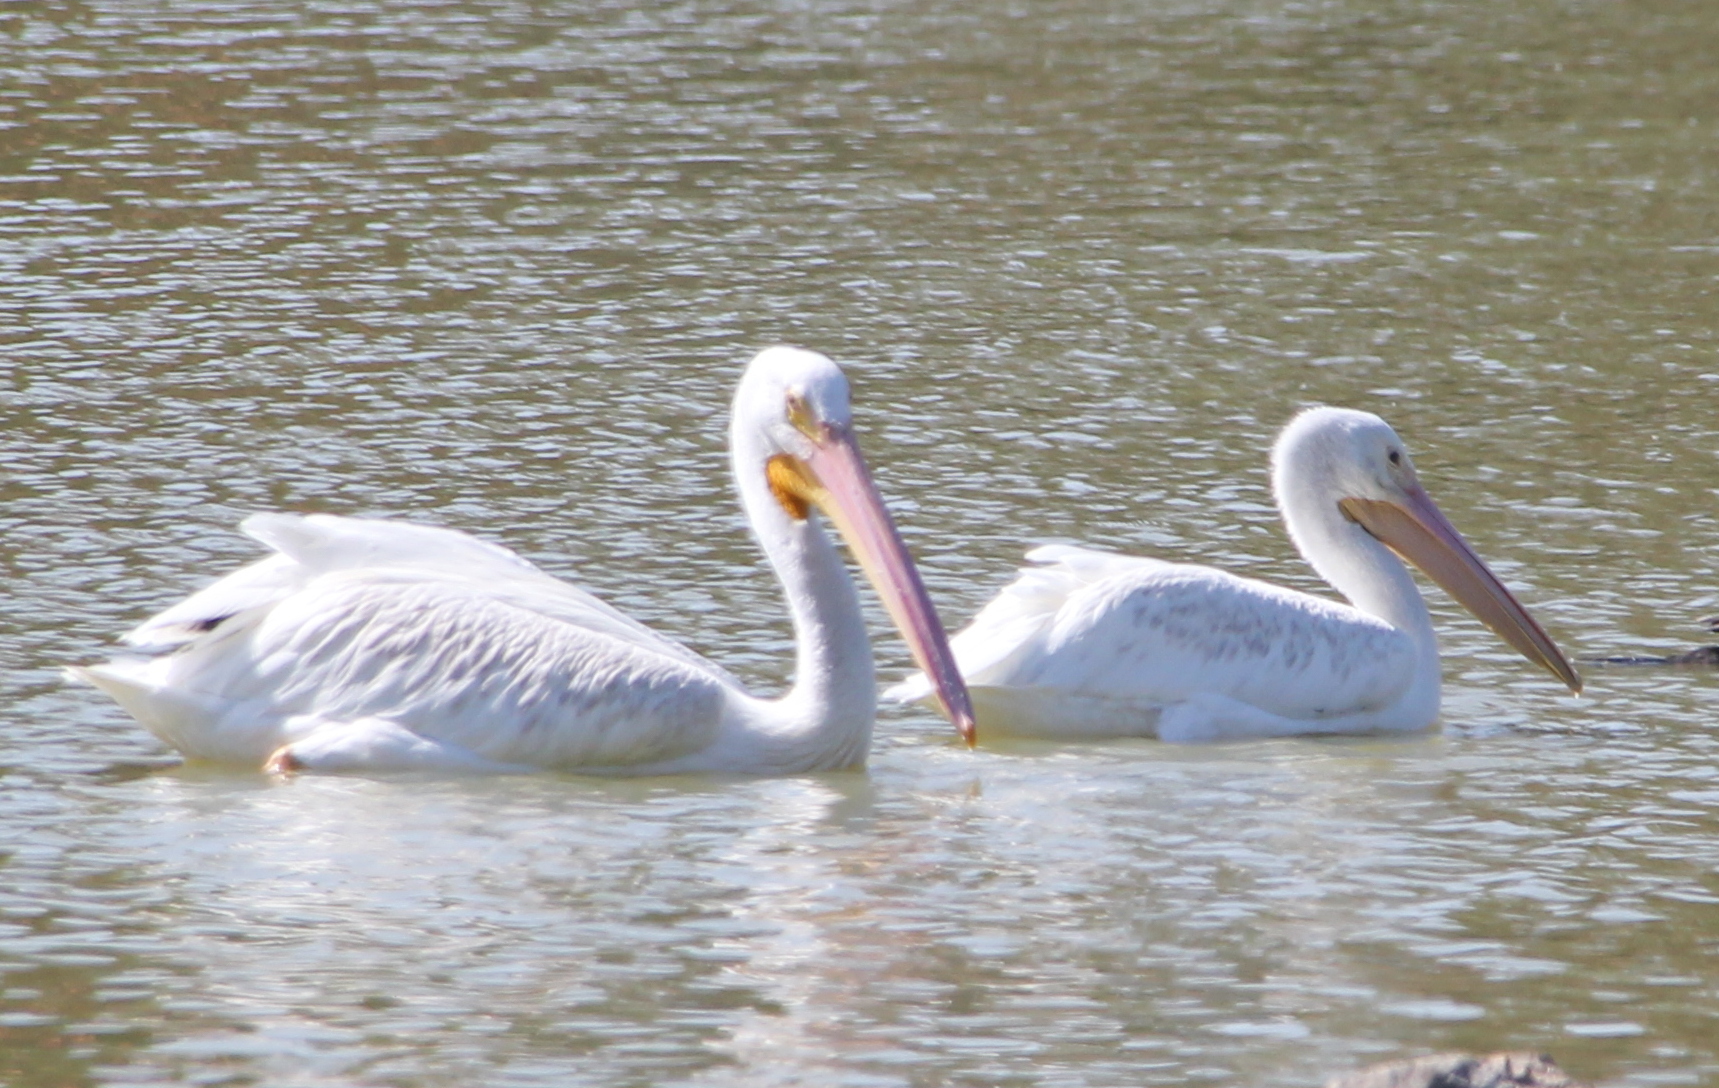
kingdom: Animalia
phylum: Chordata
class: Aves
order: Pelecaniformes
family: Pelecanidae
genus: Pelecanus
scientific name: Pelecanus erythrorhynchos
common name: American white pelican
